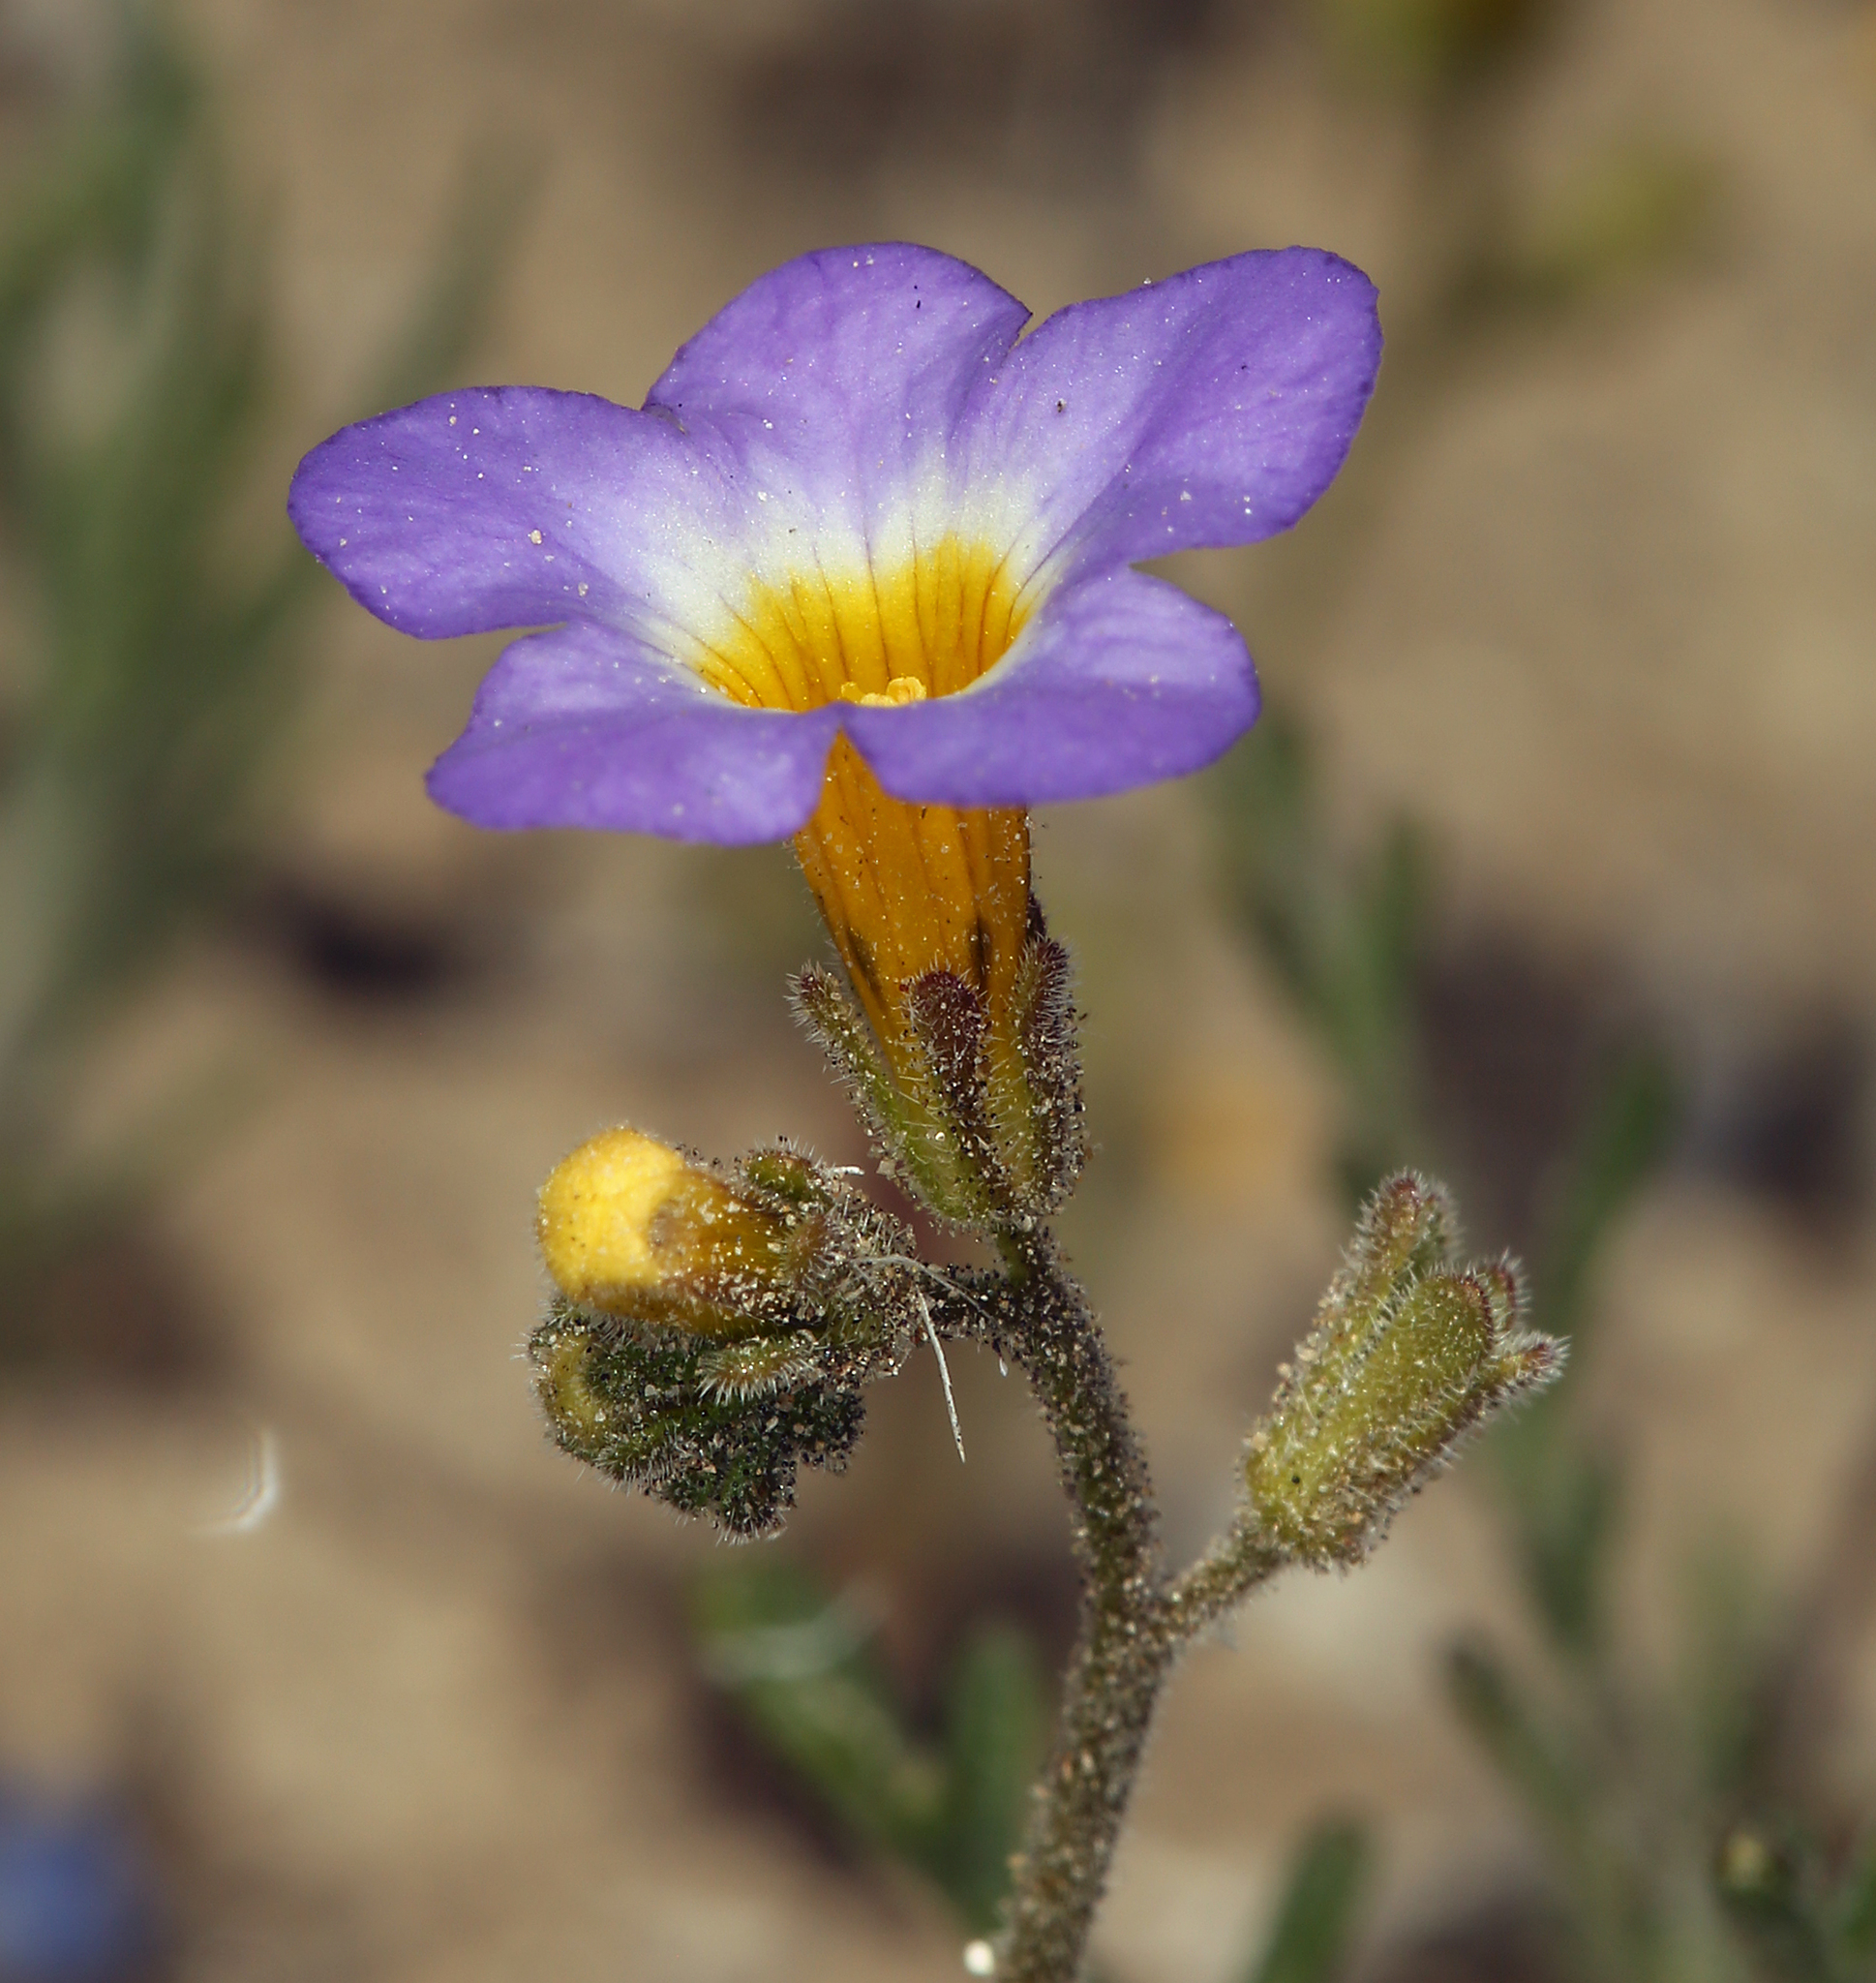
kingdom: Plantae
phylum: Tracheophyta
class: Magnoliopsida
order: Boraginales
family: Hydrophyllaceae
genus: Phacelia
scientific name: Phacelia fremontii
